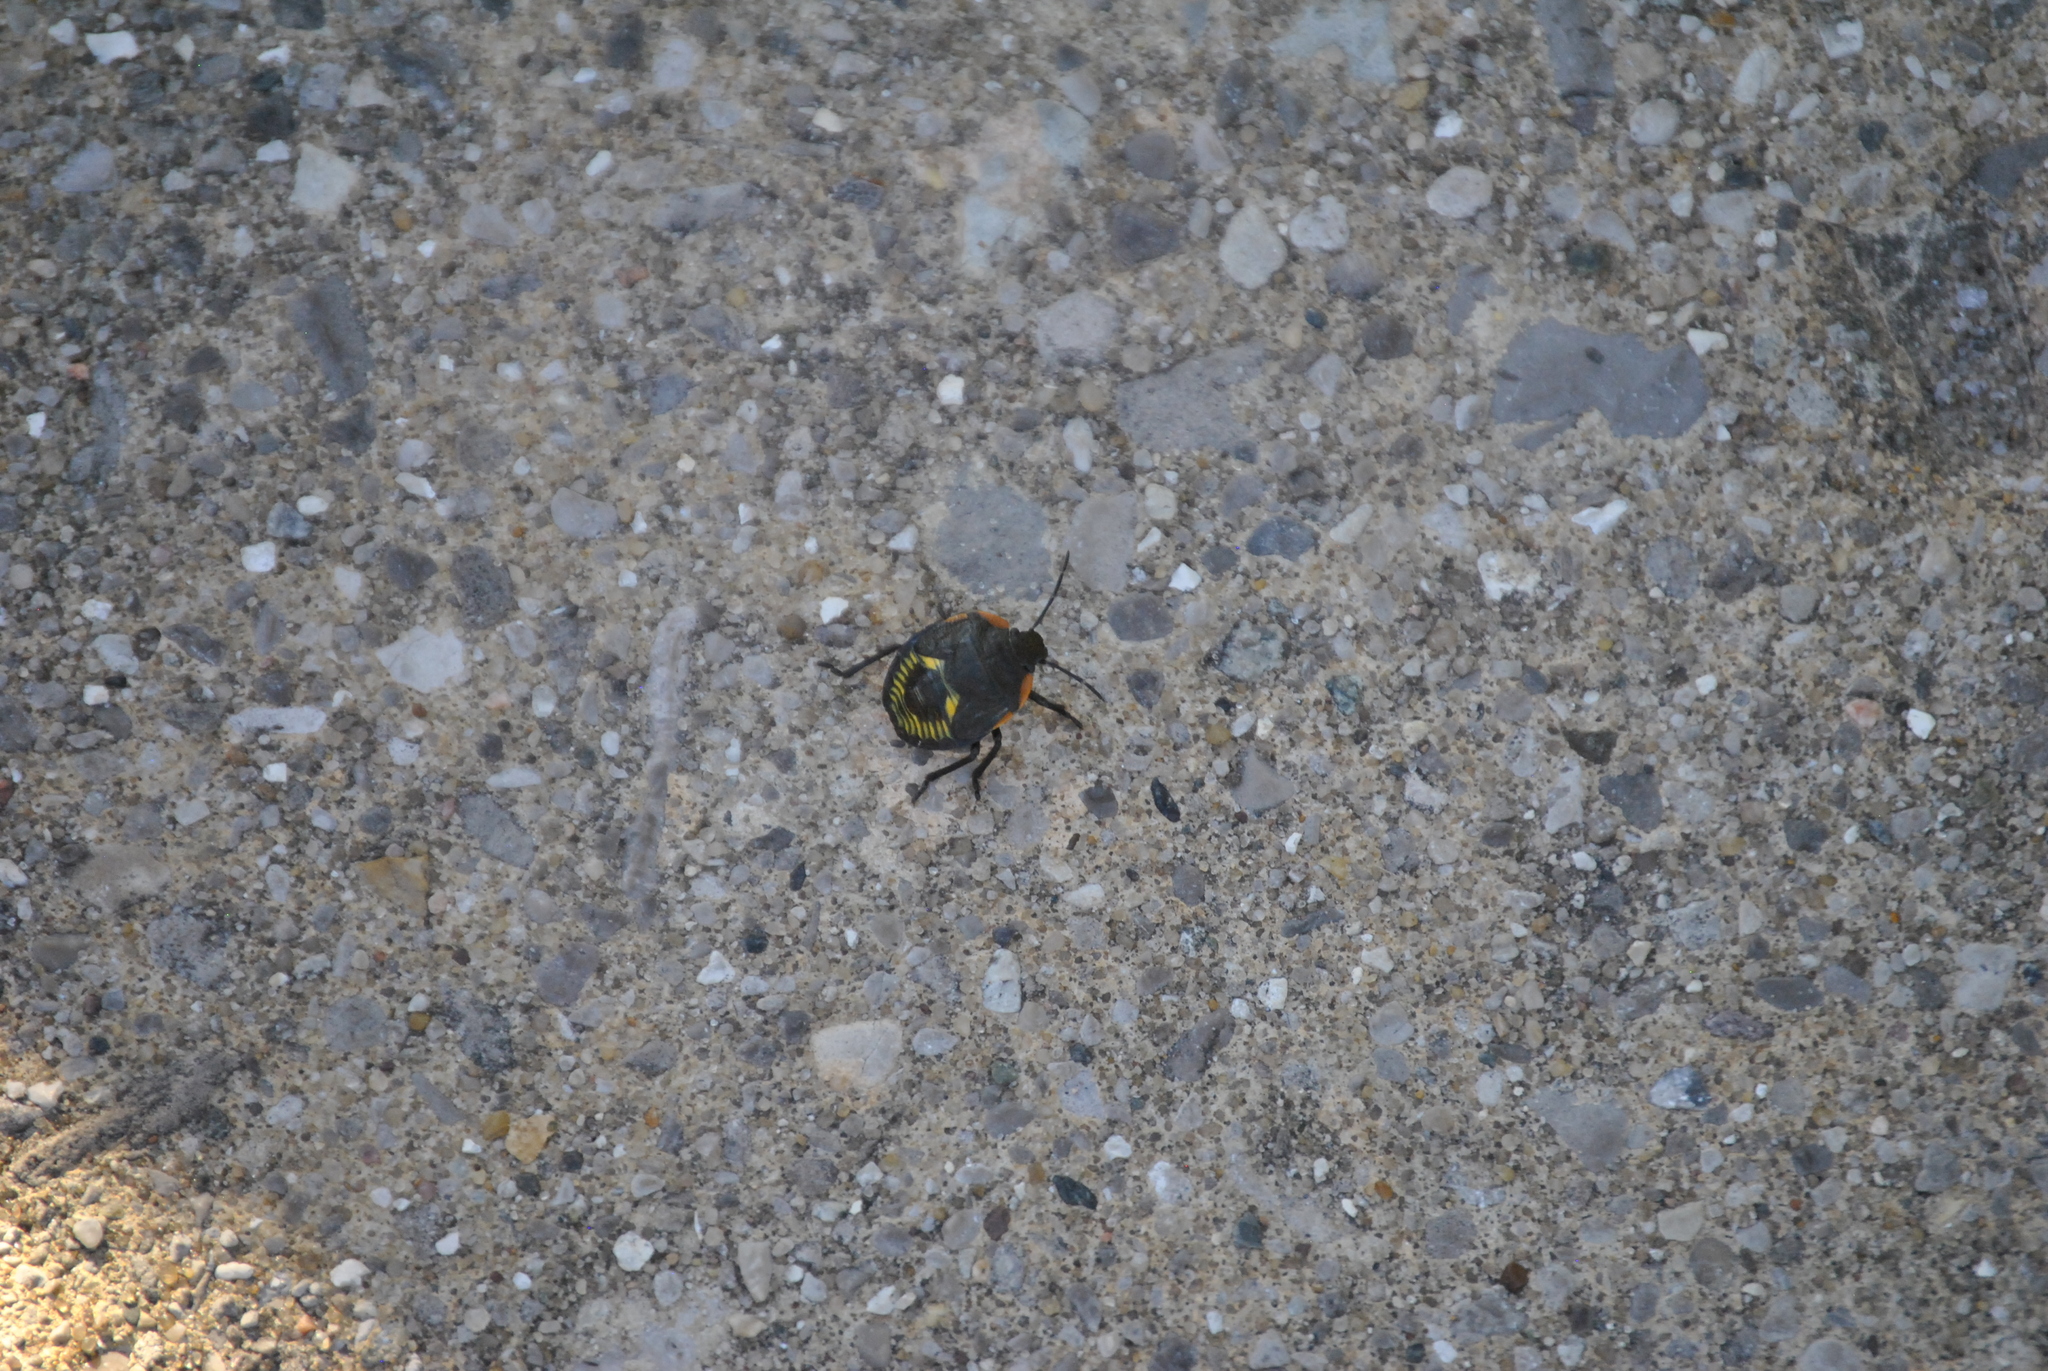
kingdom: Animalia
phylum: Arthropoda
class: Insecta
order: Hemiptera
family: Pentatomidae
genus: Chinavia
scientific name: Chinavia hilaris
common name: Green stink bug
